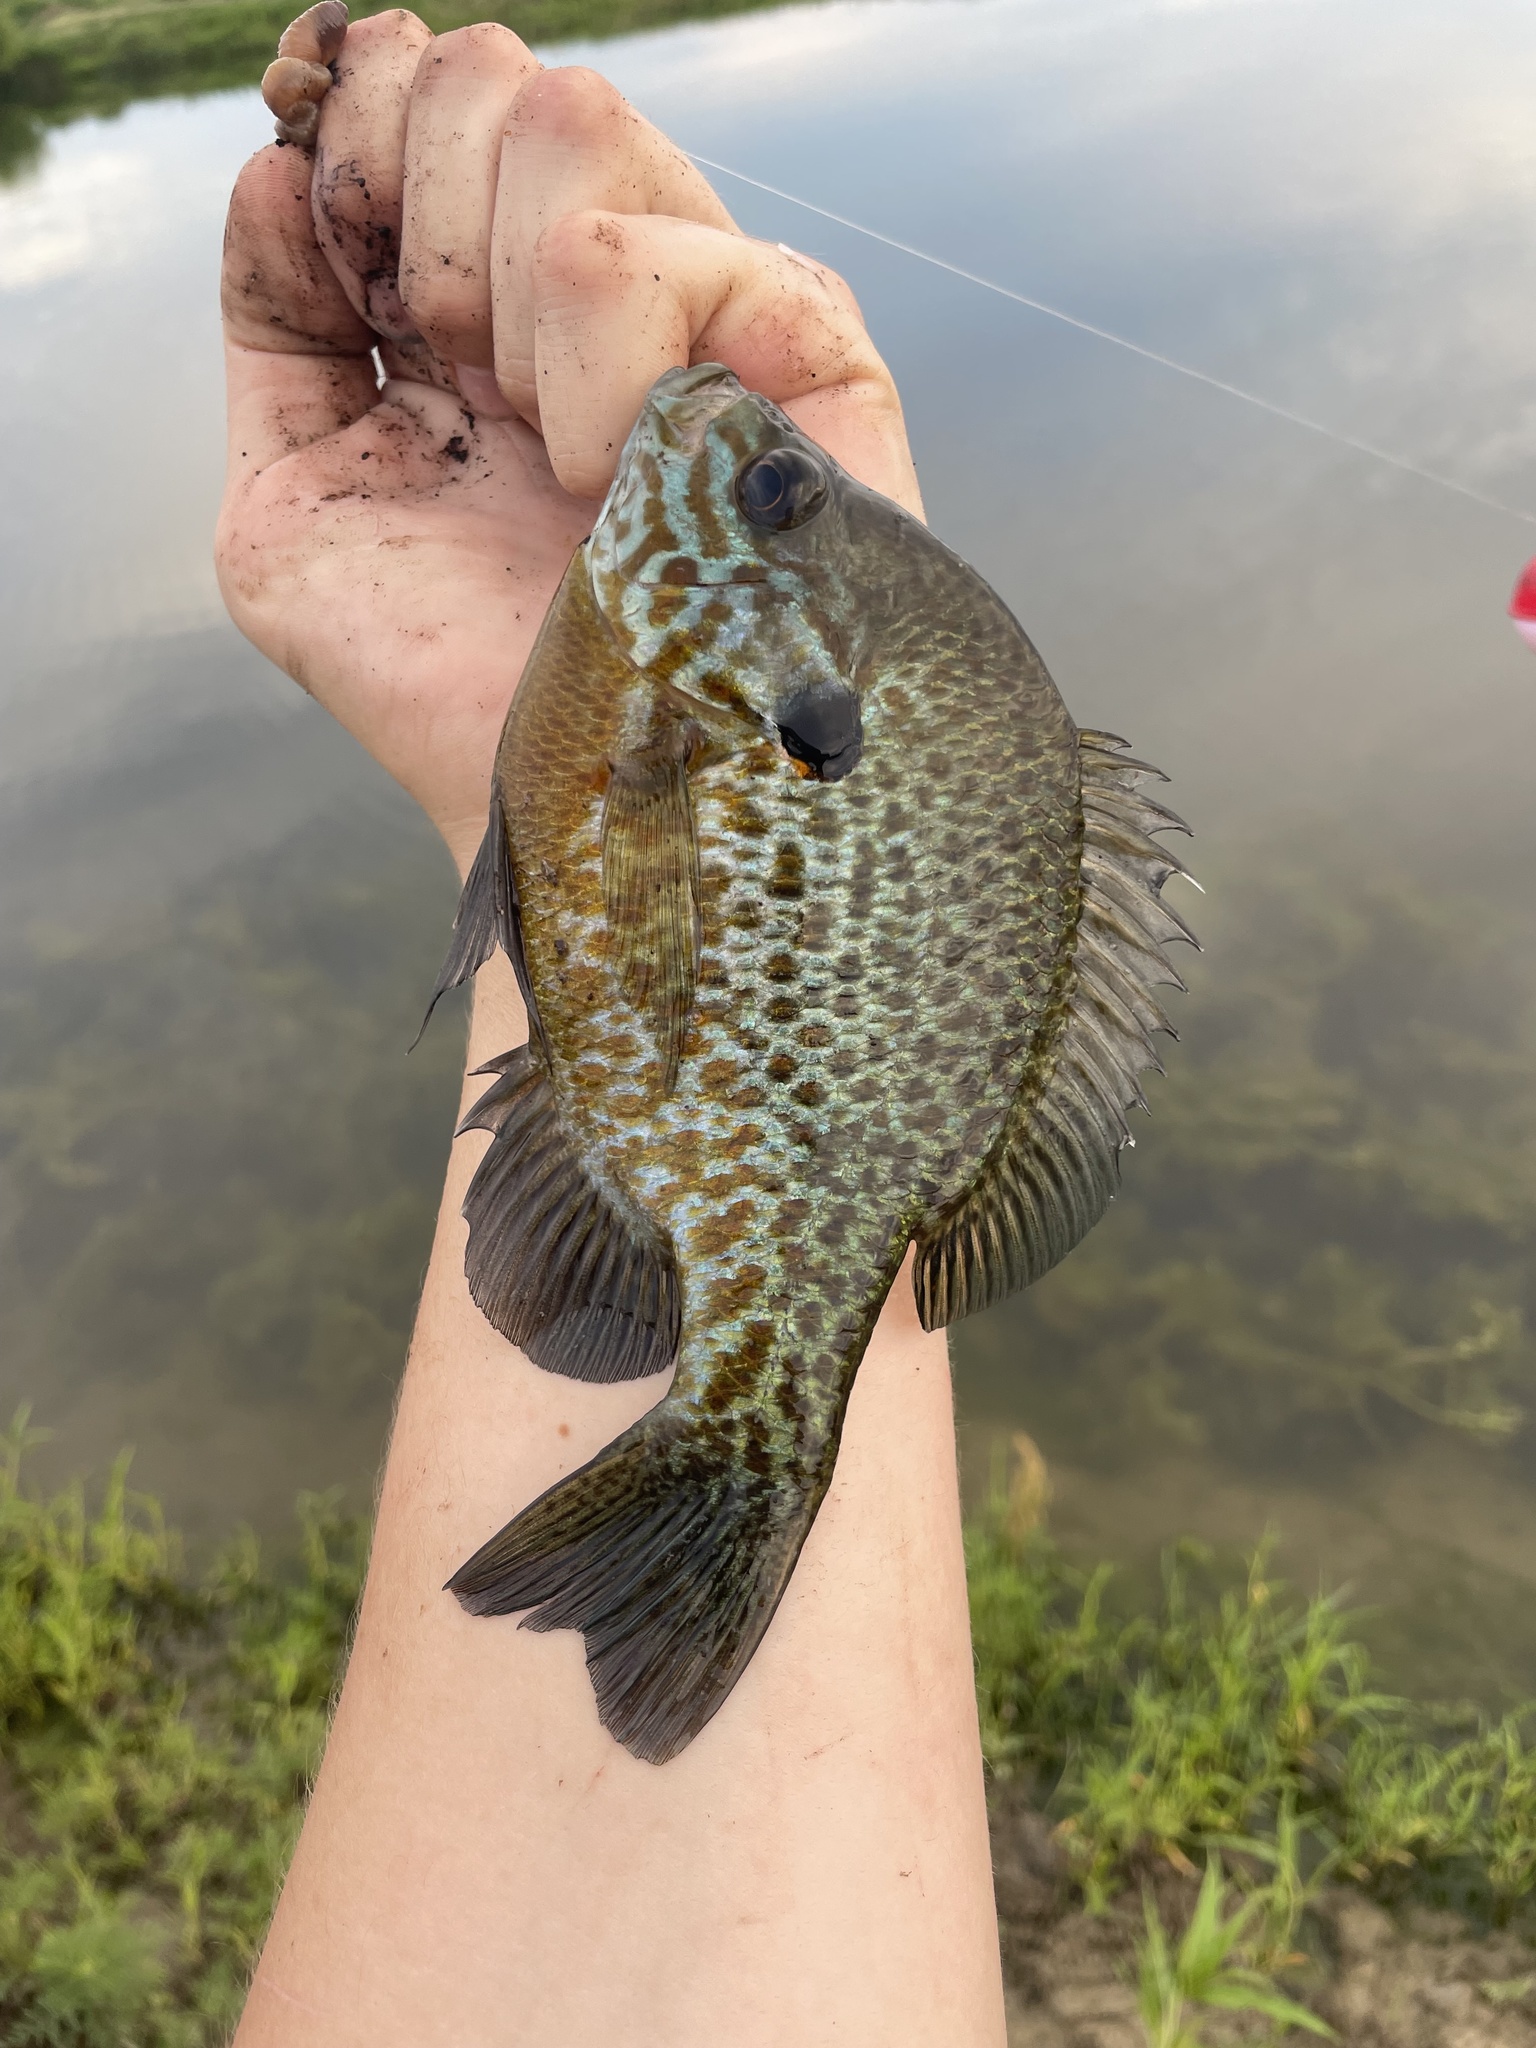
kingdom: Animalia
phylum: Chordata
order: Perciformes
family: Centrarchidae
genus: Lepomis
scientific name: Lepomis
